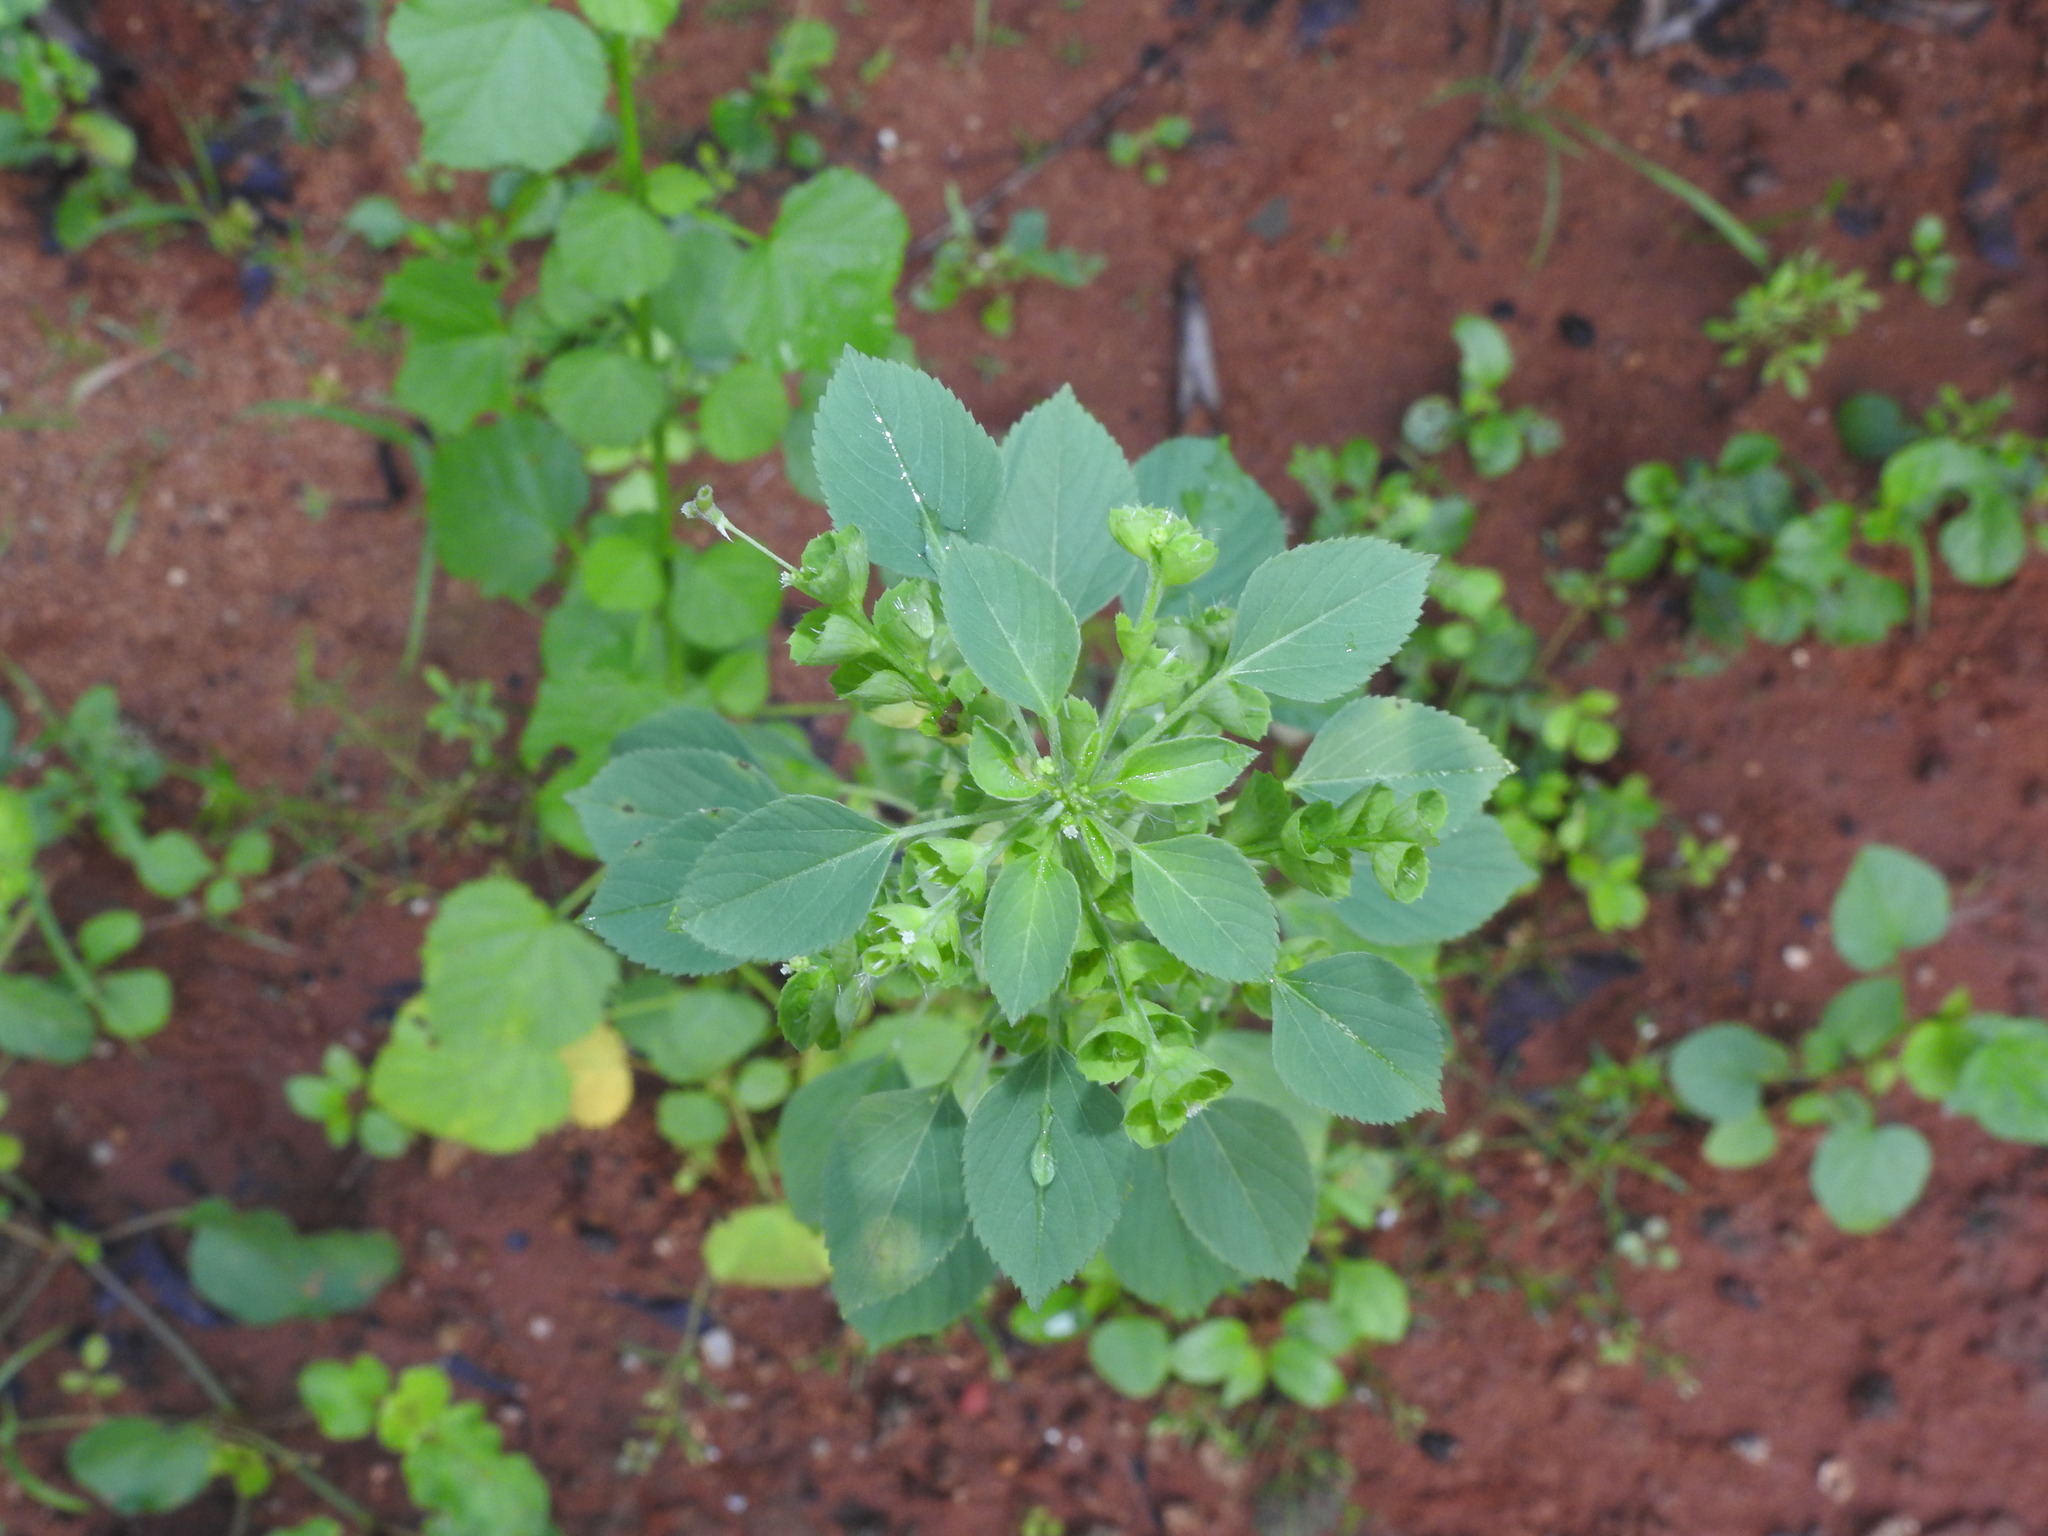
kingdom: Plantae
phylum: Tracheophyta
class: Magnoliopsida
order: Malpighiales
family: Euphorbiaceae
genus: Acalypha
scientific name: Acalypha indica
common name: Indian acalypha
